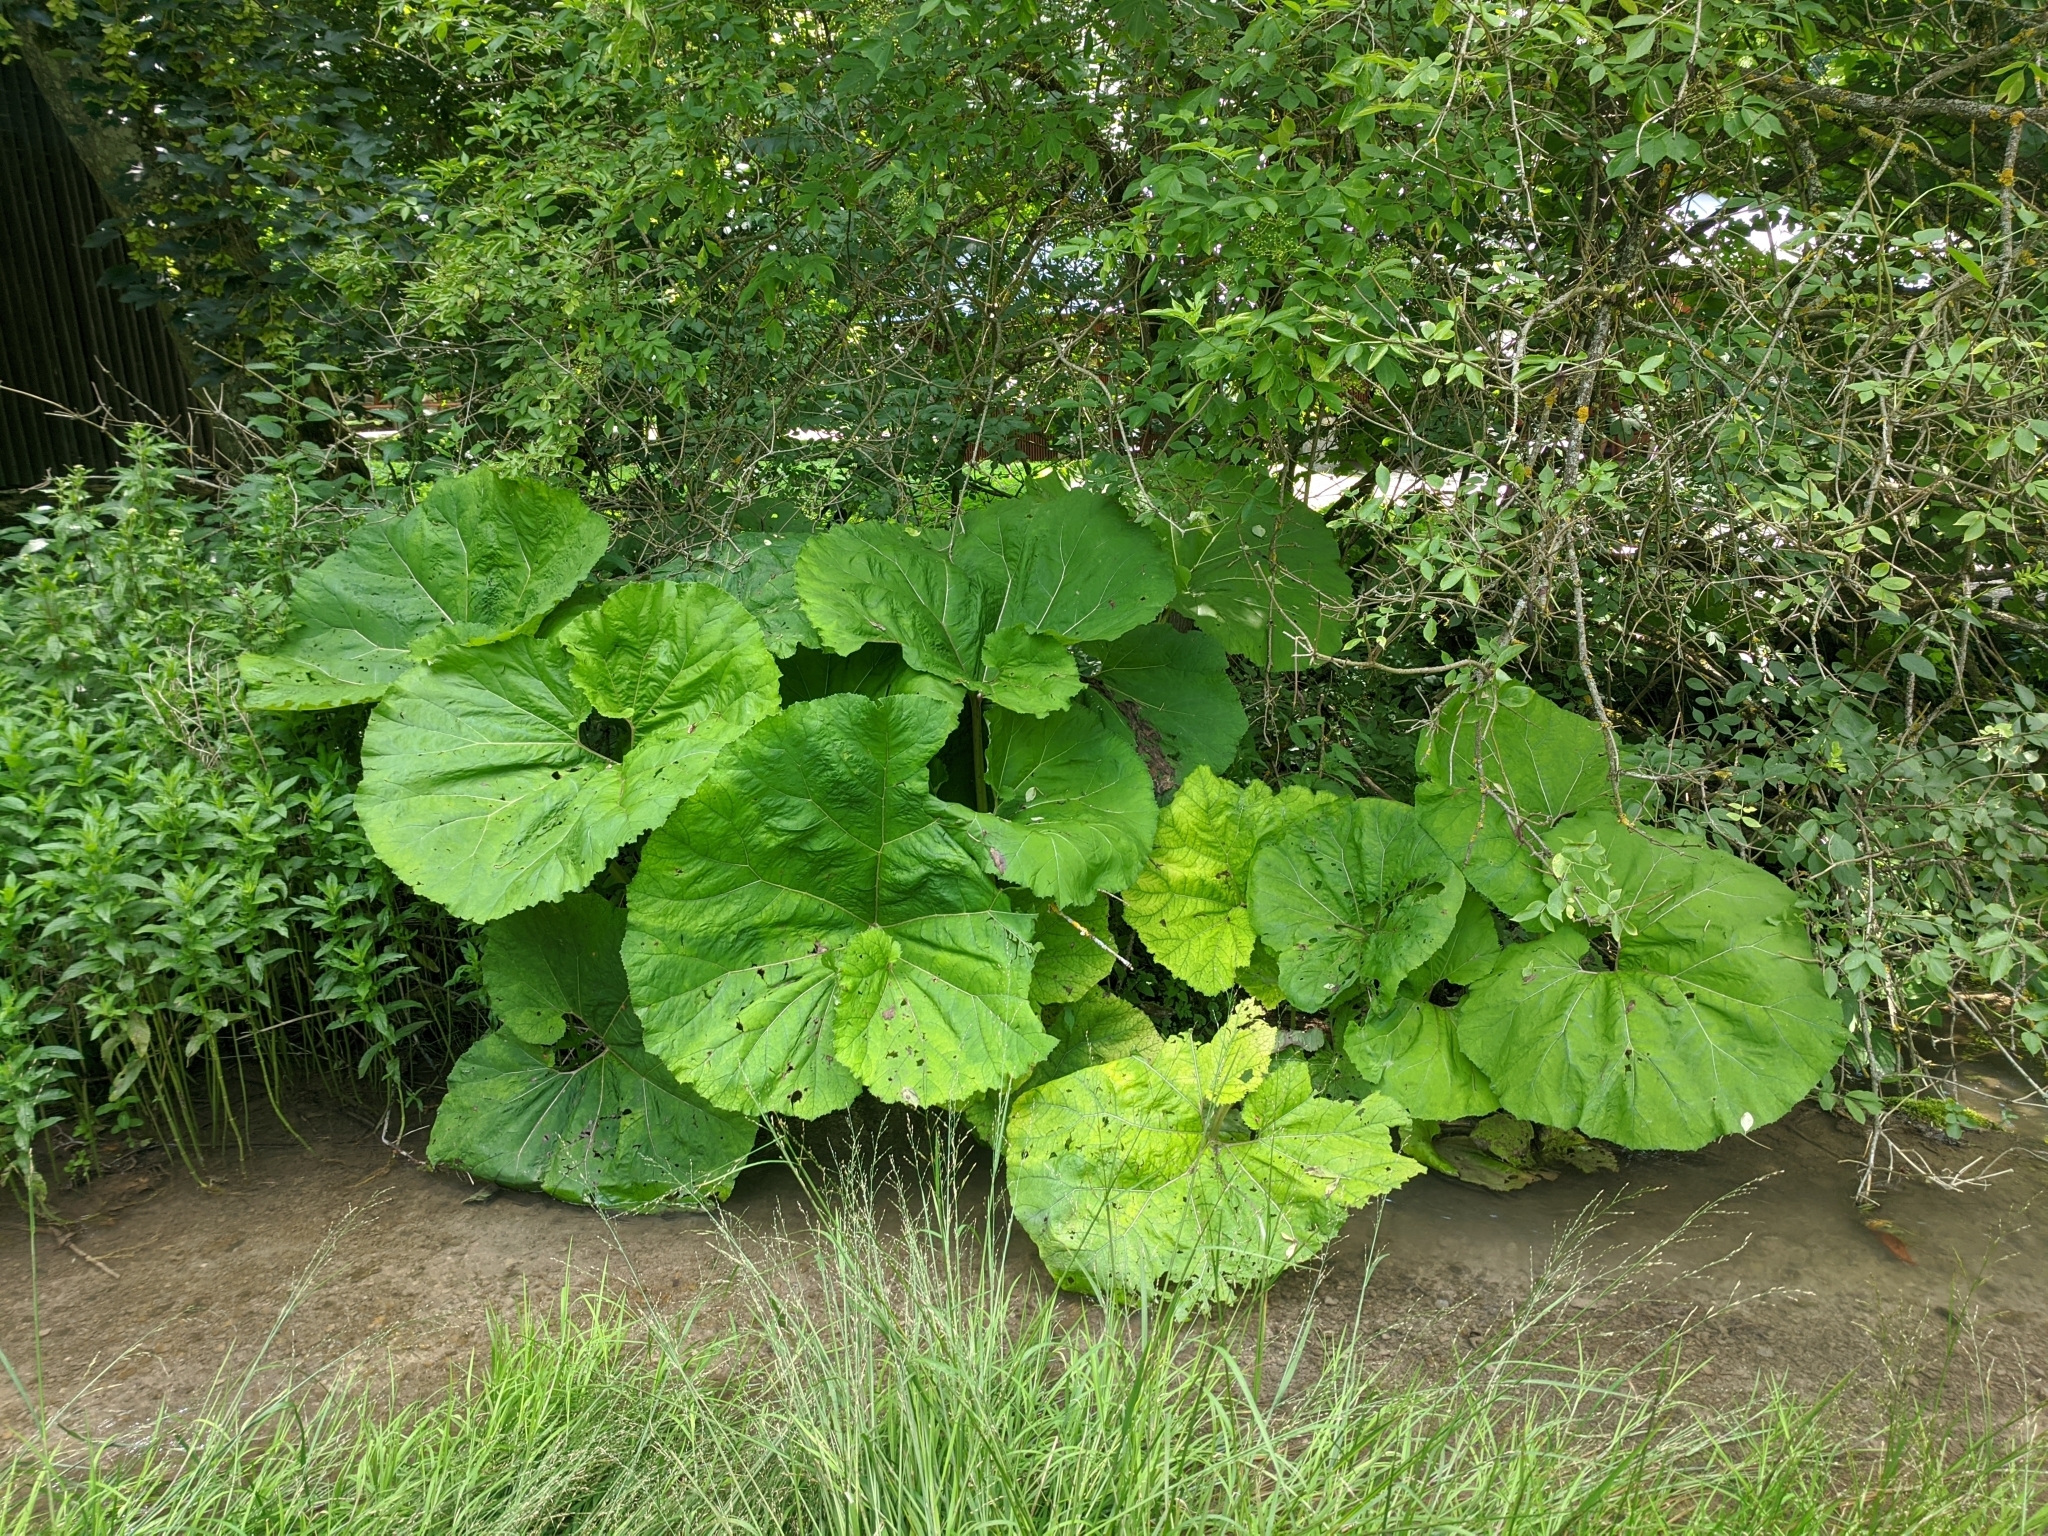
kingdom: Plantae
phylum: Tracheophyta
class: Magnoliopsida
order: Asterales
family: Asteraceae
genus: Petasites
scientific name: Petasites hybridus
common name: Butterbur
